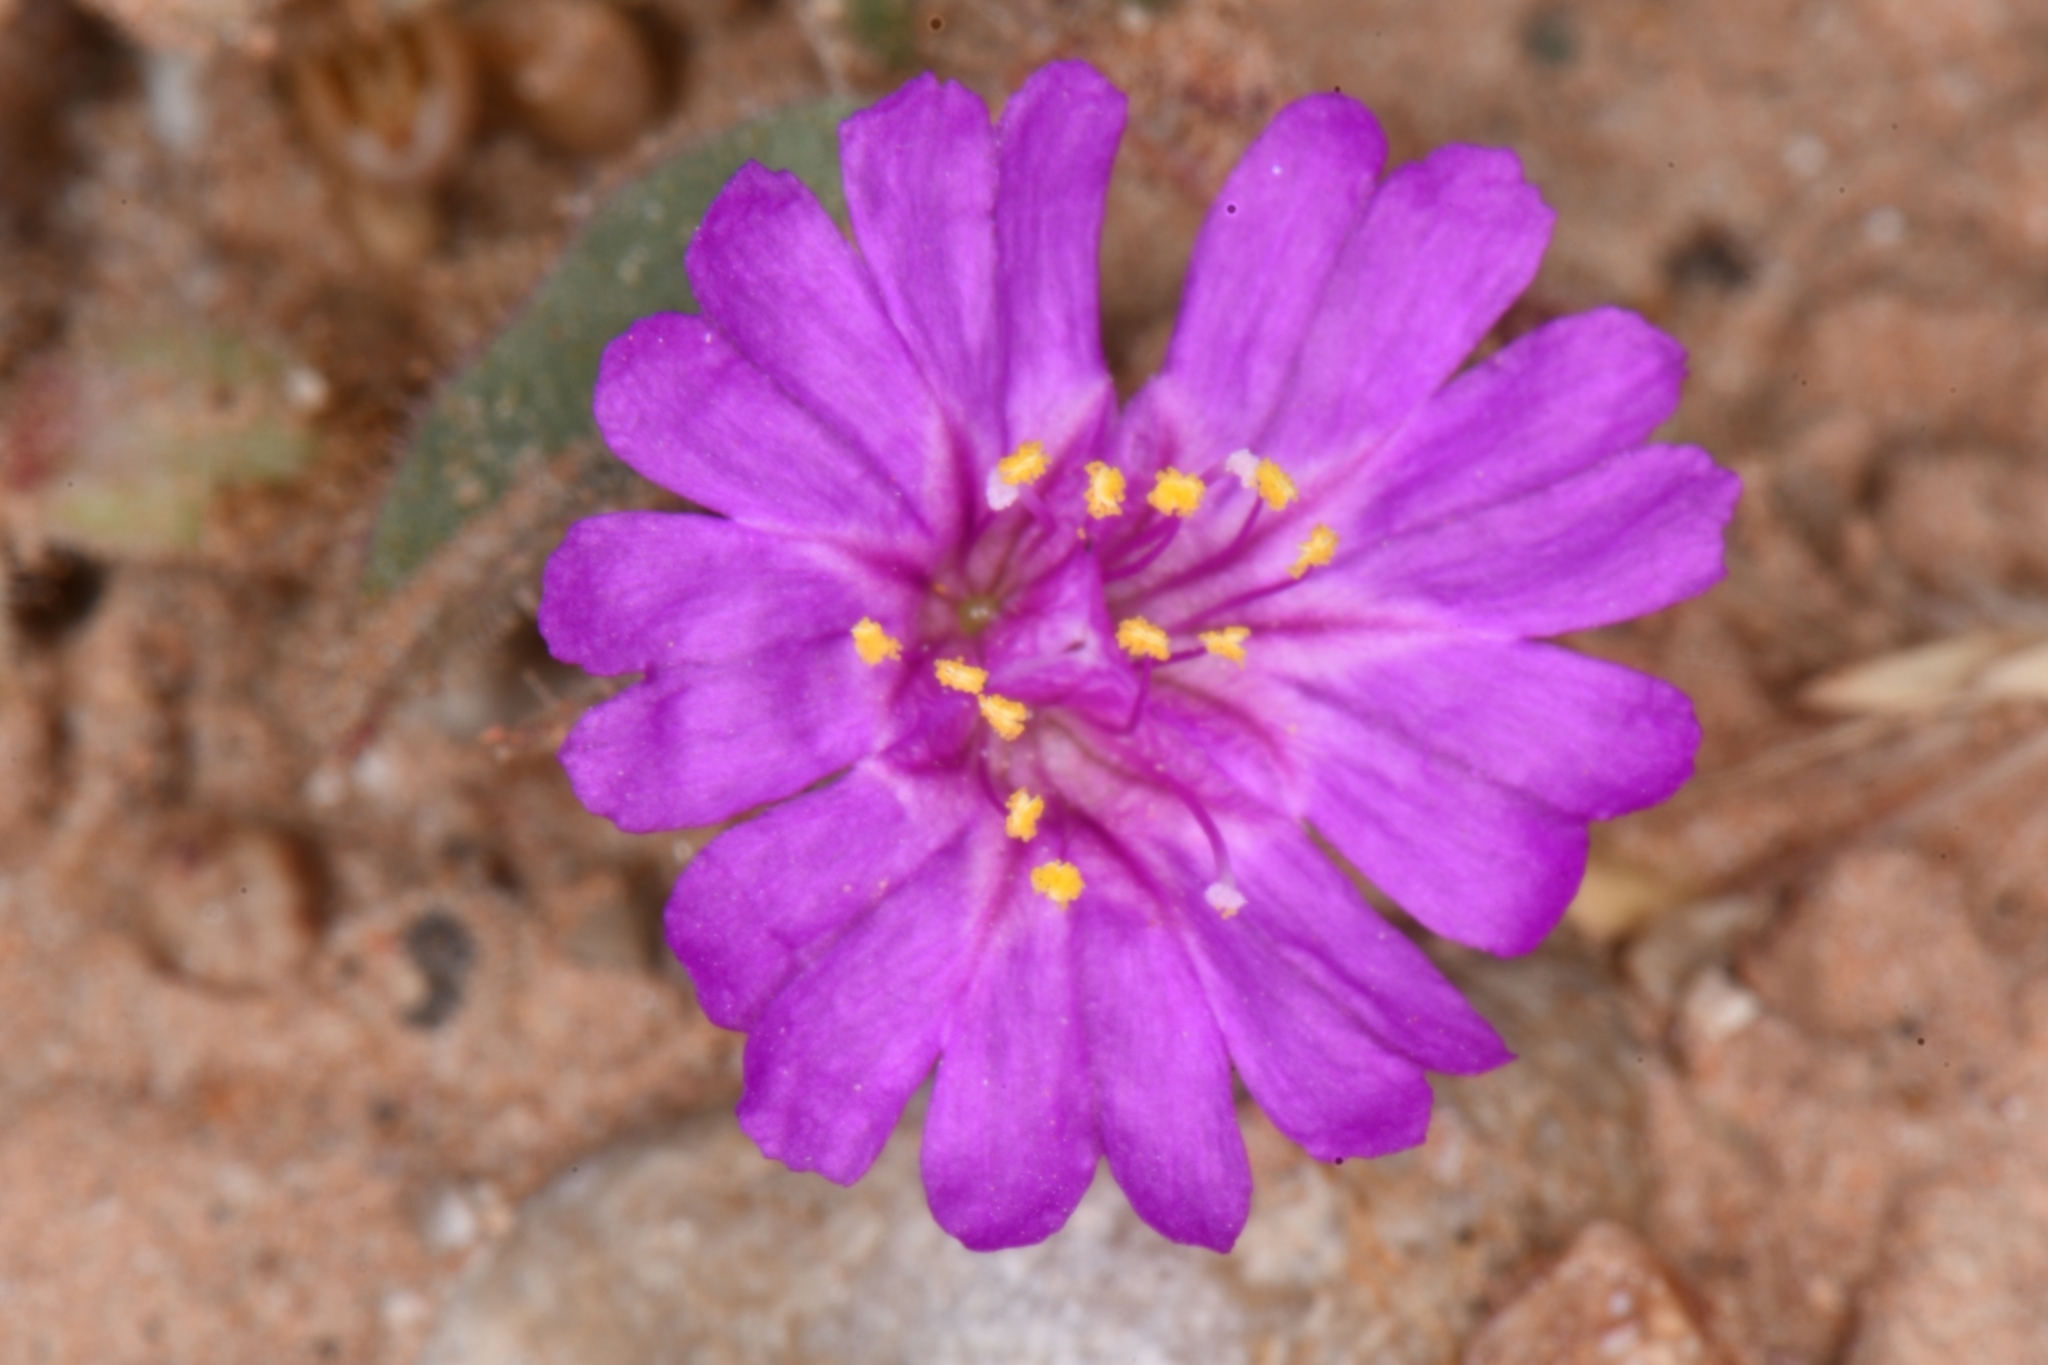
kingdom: Plantae
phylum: Tracheophyta
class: Magnoliopsida
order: Caryophyllales
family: Nyctaginaceae
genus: Allionia
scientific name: Allionia incarnata
